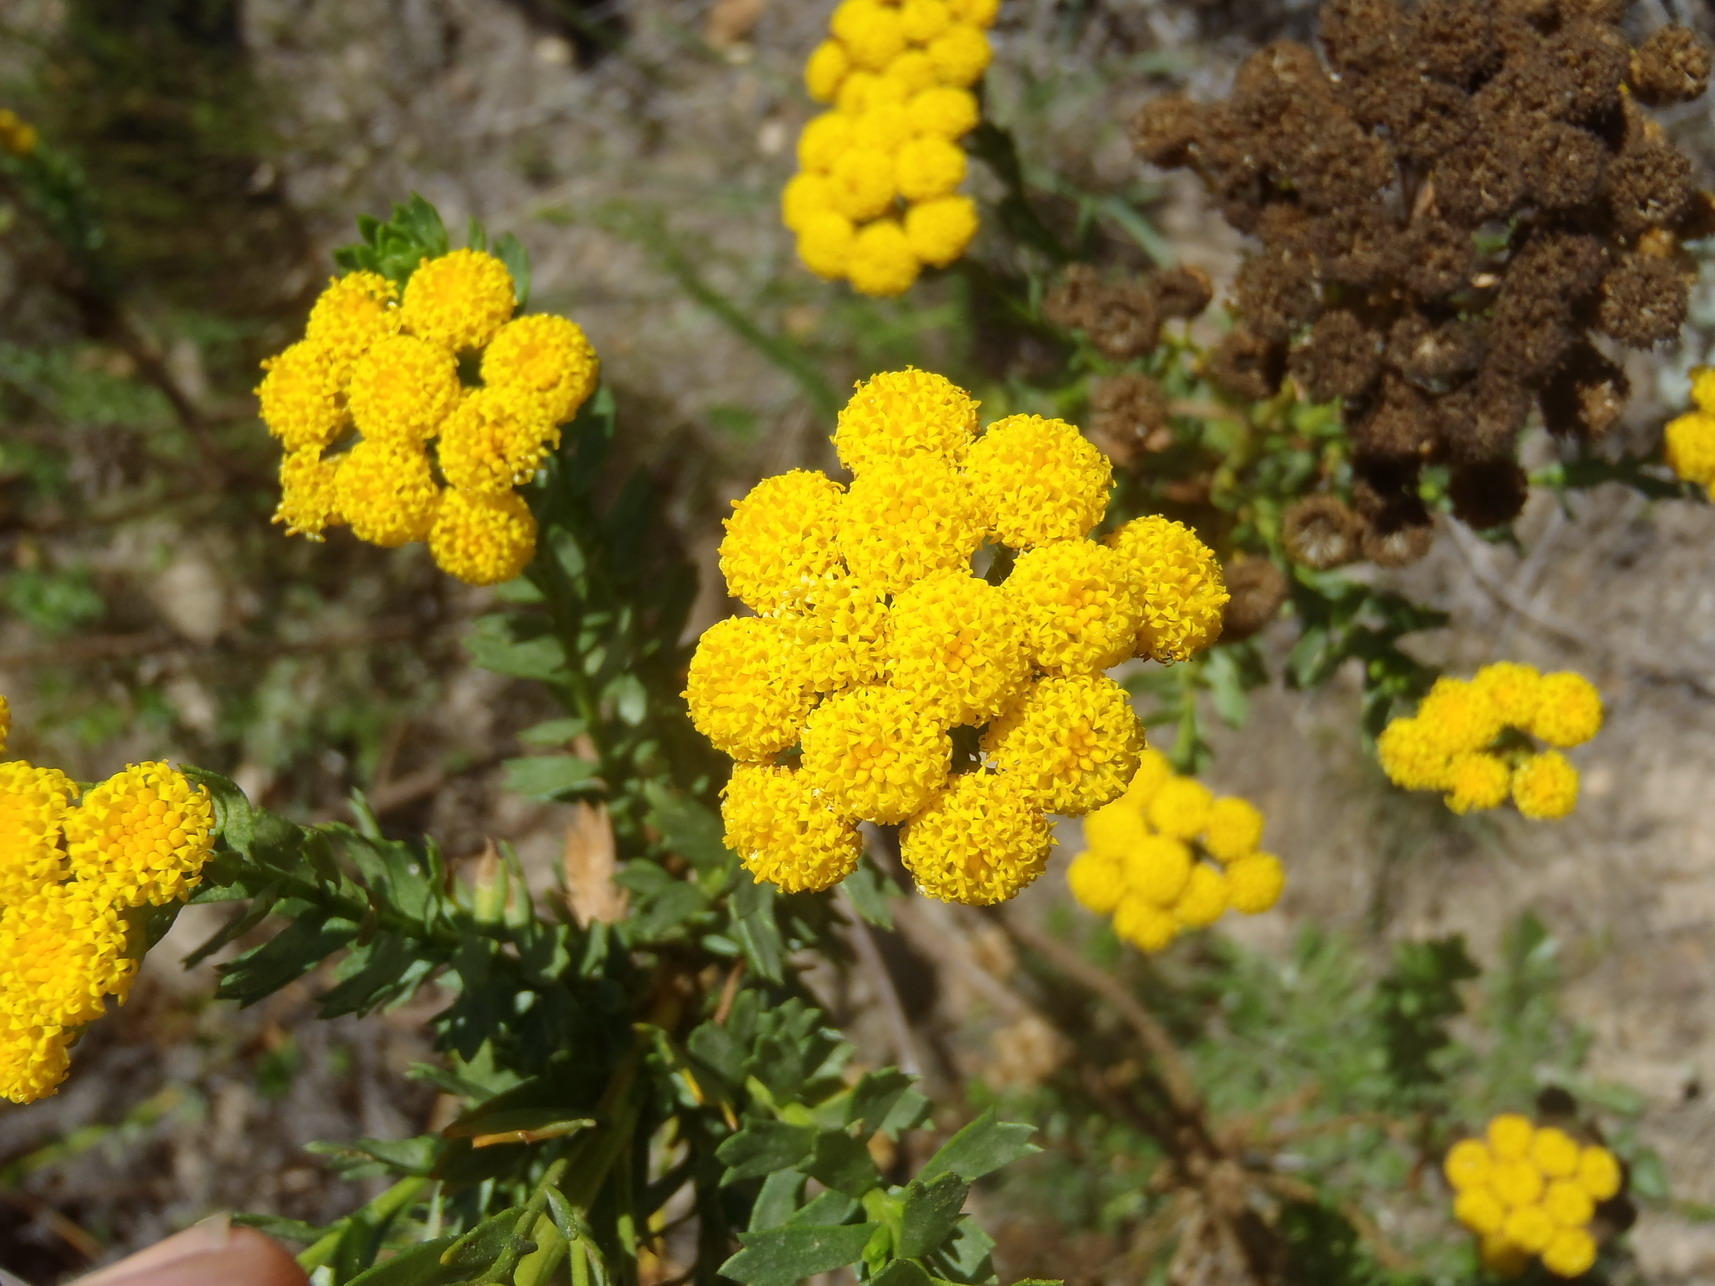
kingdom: Plantae
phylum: Tracheophyta
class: Magnoliopsida
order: Asterales
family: Asteraceae
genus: Athanasia
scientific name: Athanasia trifurcata
